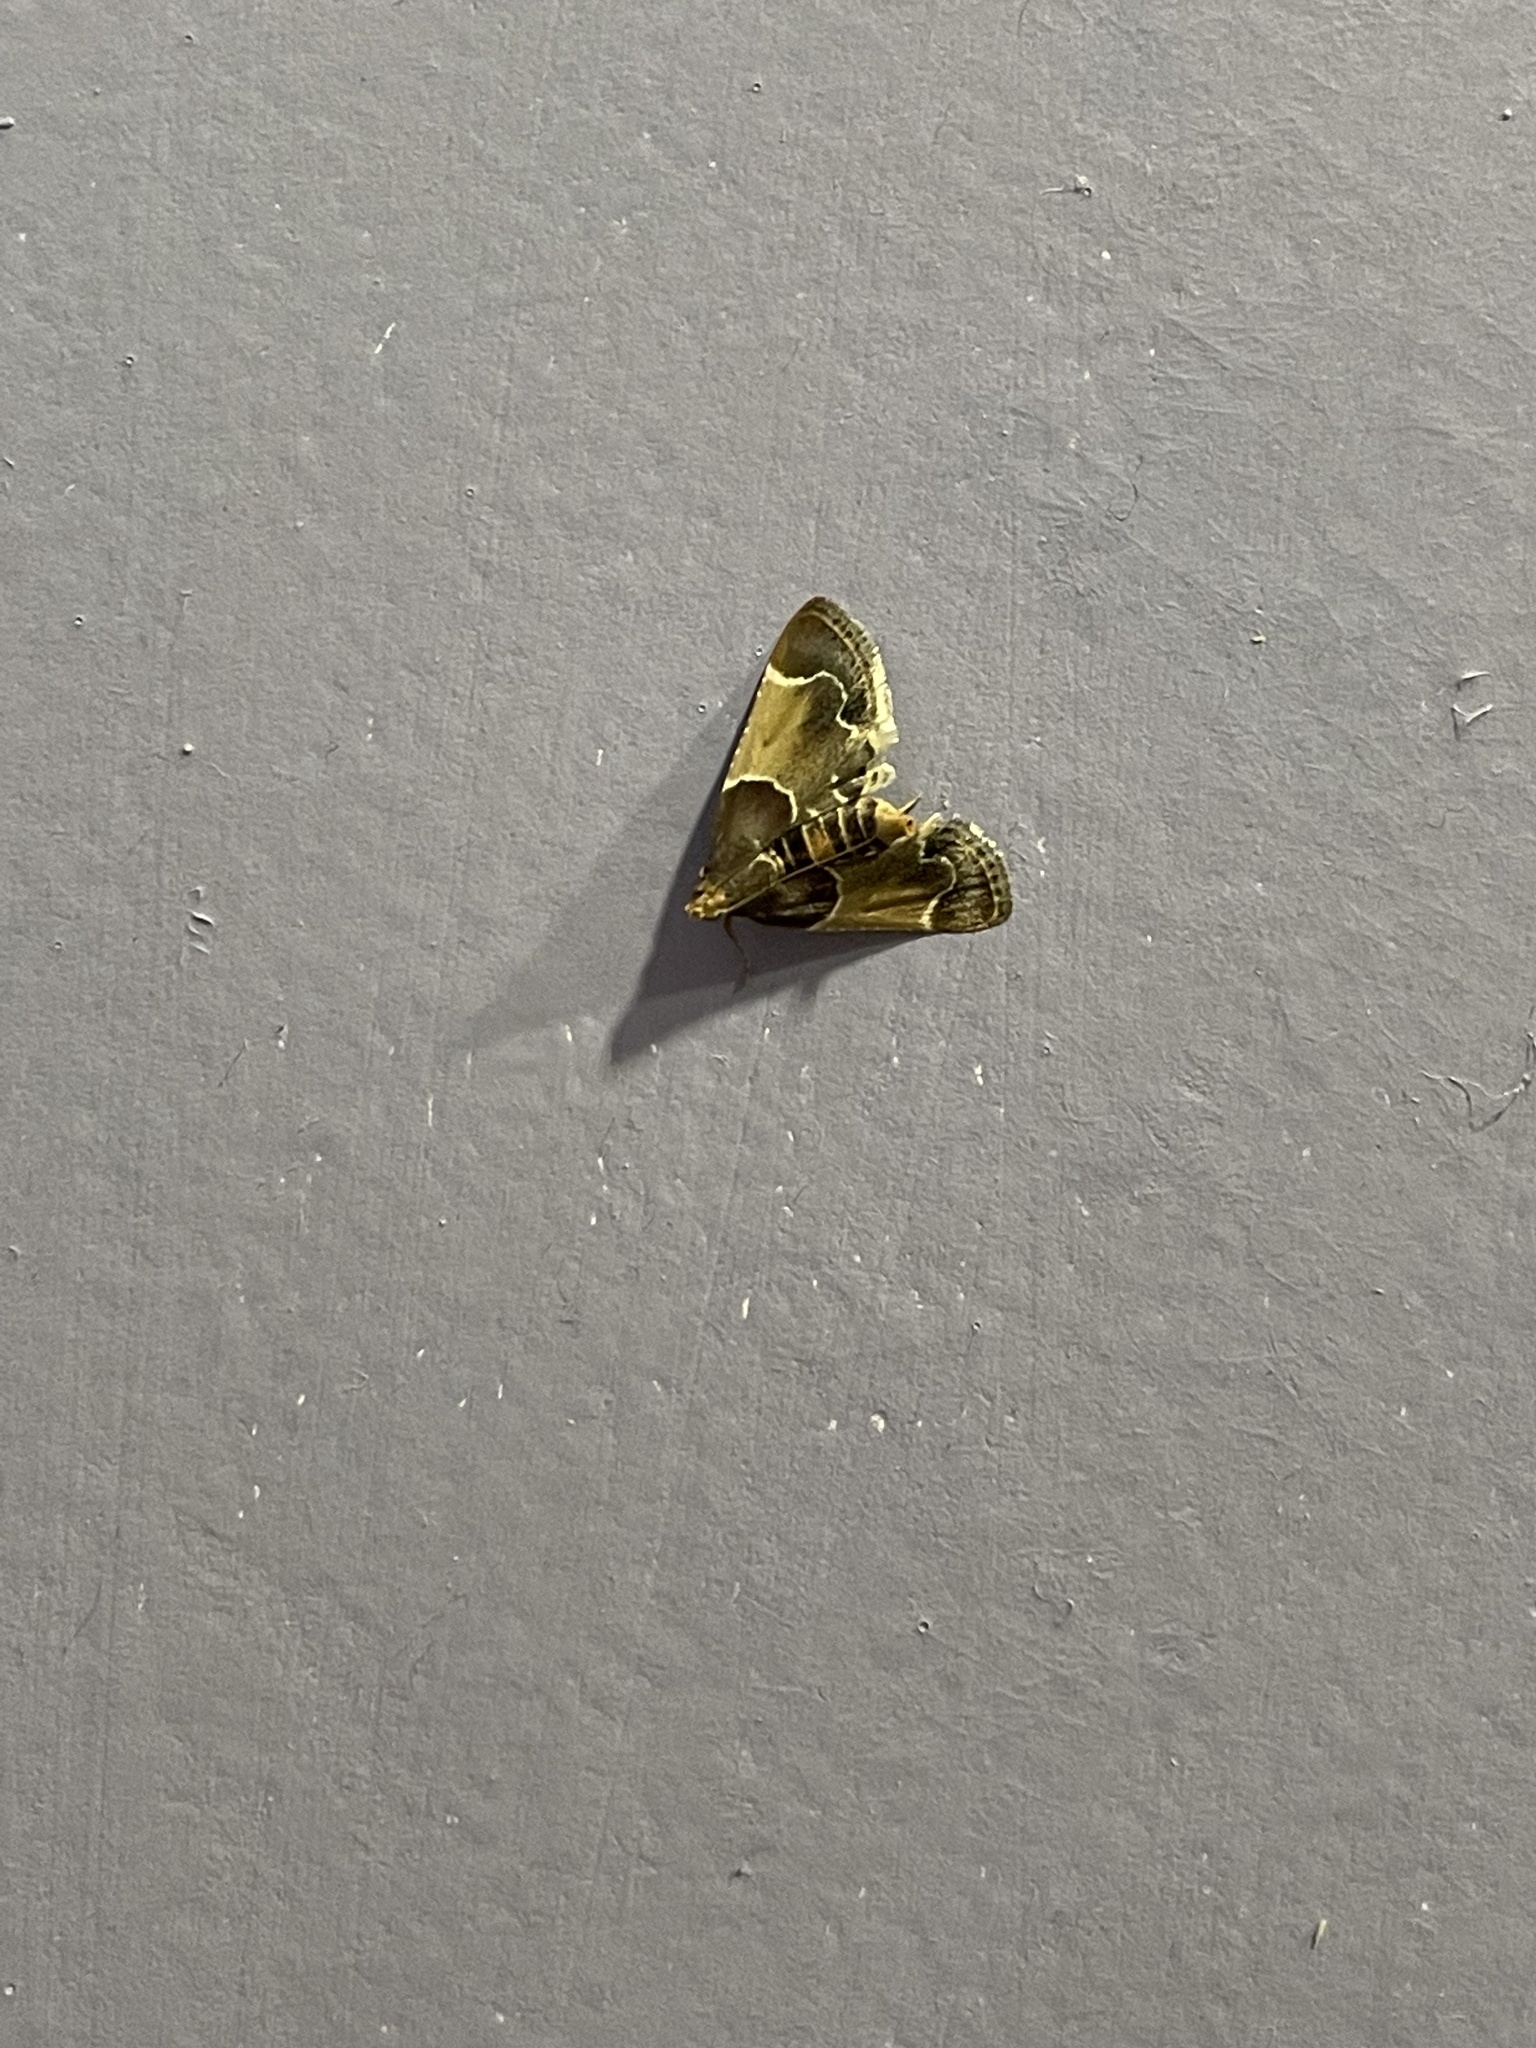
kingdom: Animalia
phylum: Arthropoda
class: Insecta
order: Lepidoptera
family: Pyralidae
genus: Pyralis
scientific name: Pyralis farinalis
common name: Meal moth
